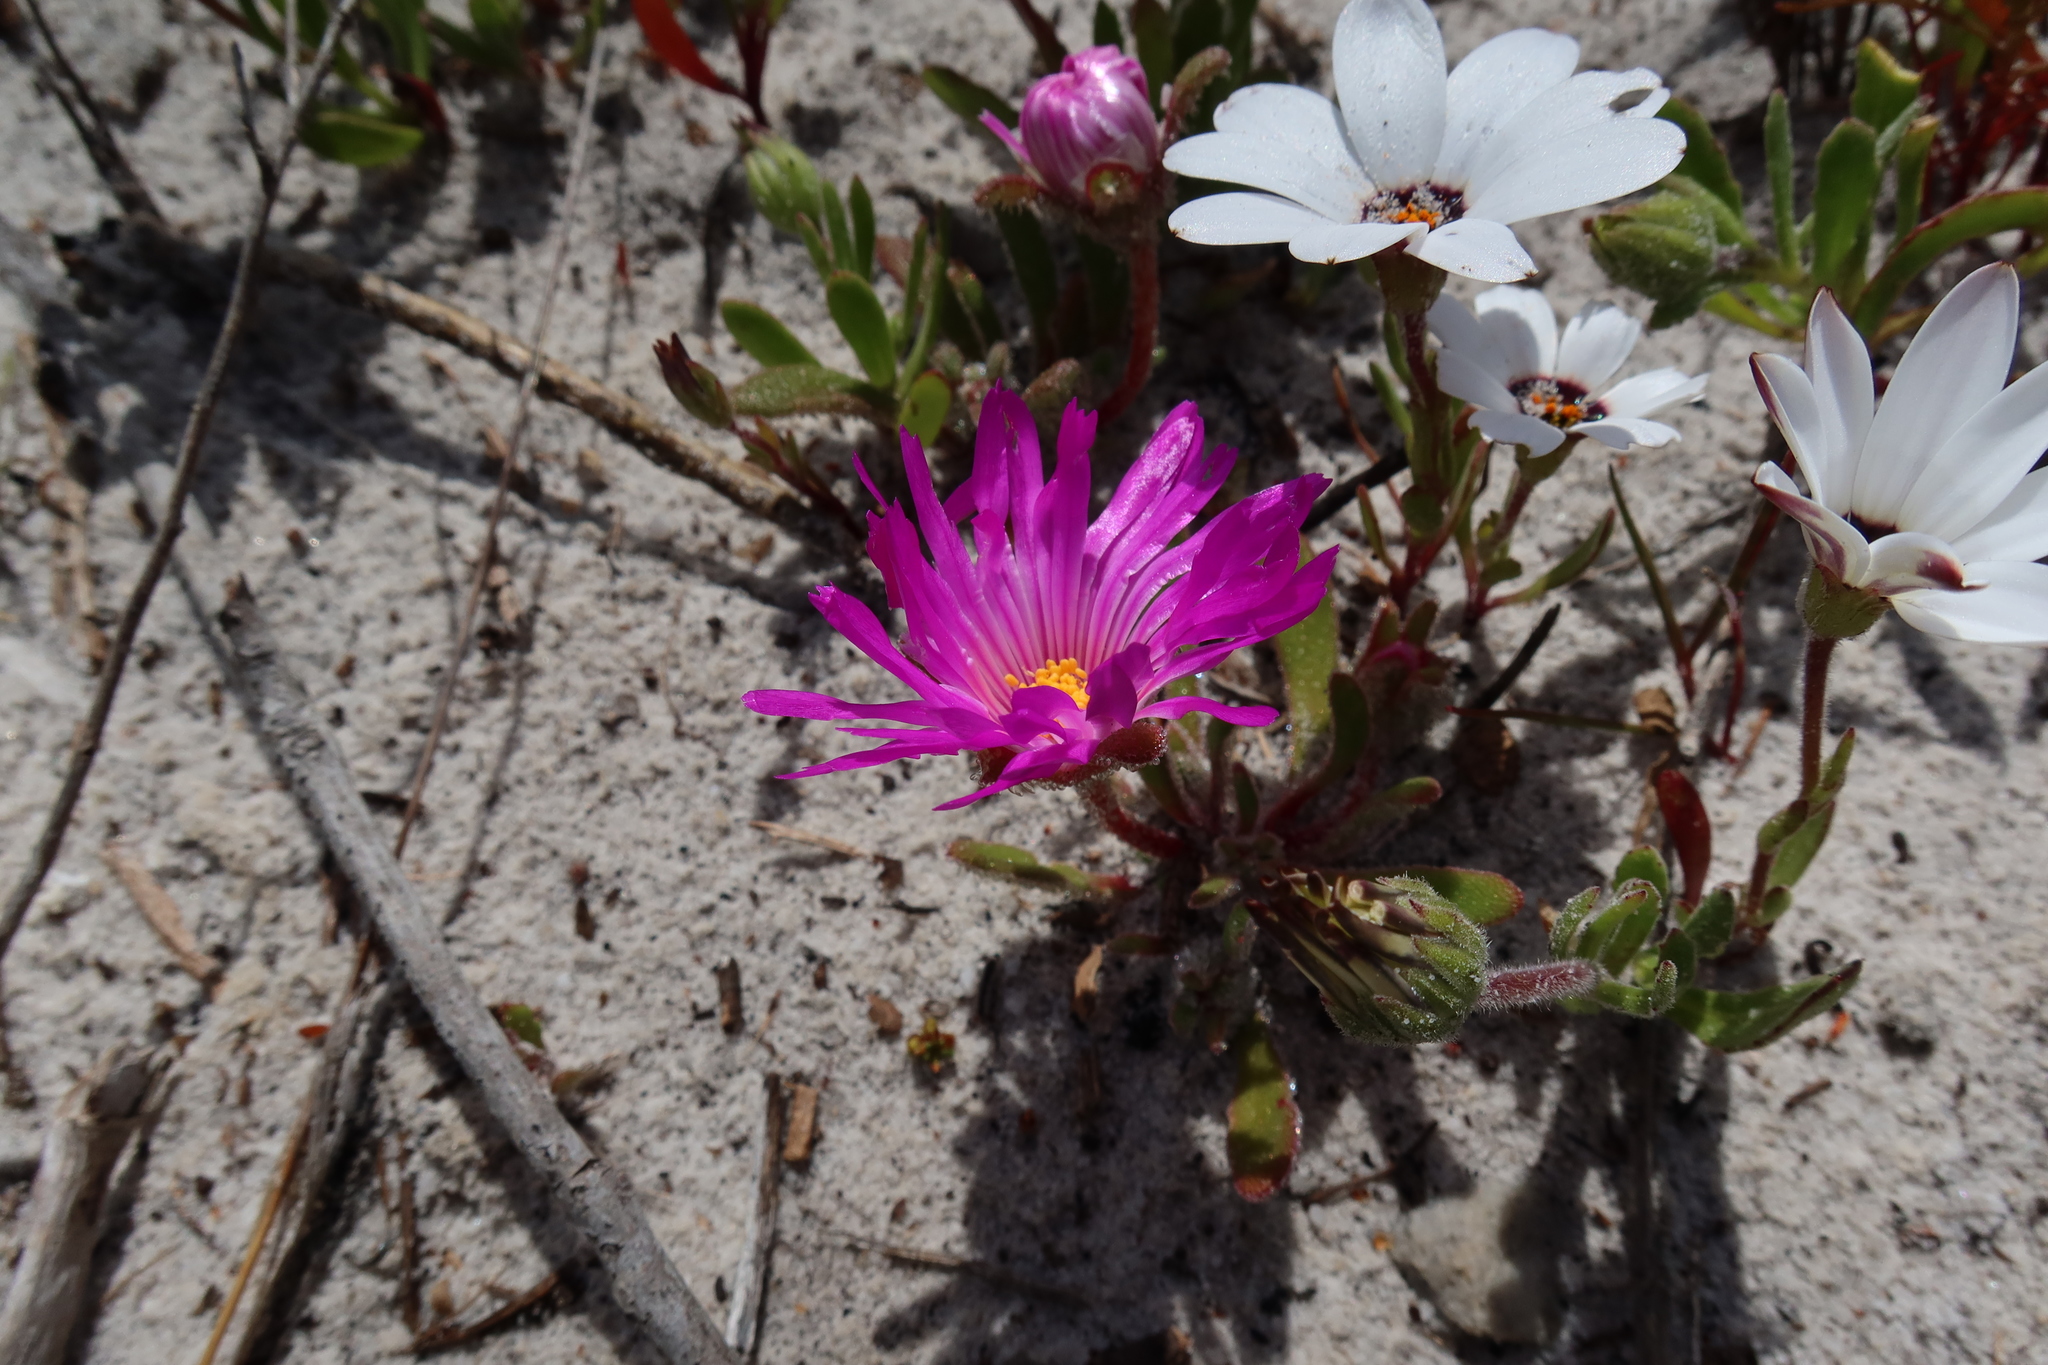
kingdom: Plantae
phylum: Tracheophyta
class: Magnoliopsida
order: Caryophyllales
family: Aizoaceae
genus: Cleretum
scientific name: Cleretum bellidiforme
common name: Livingstone daisy
